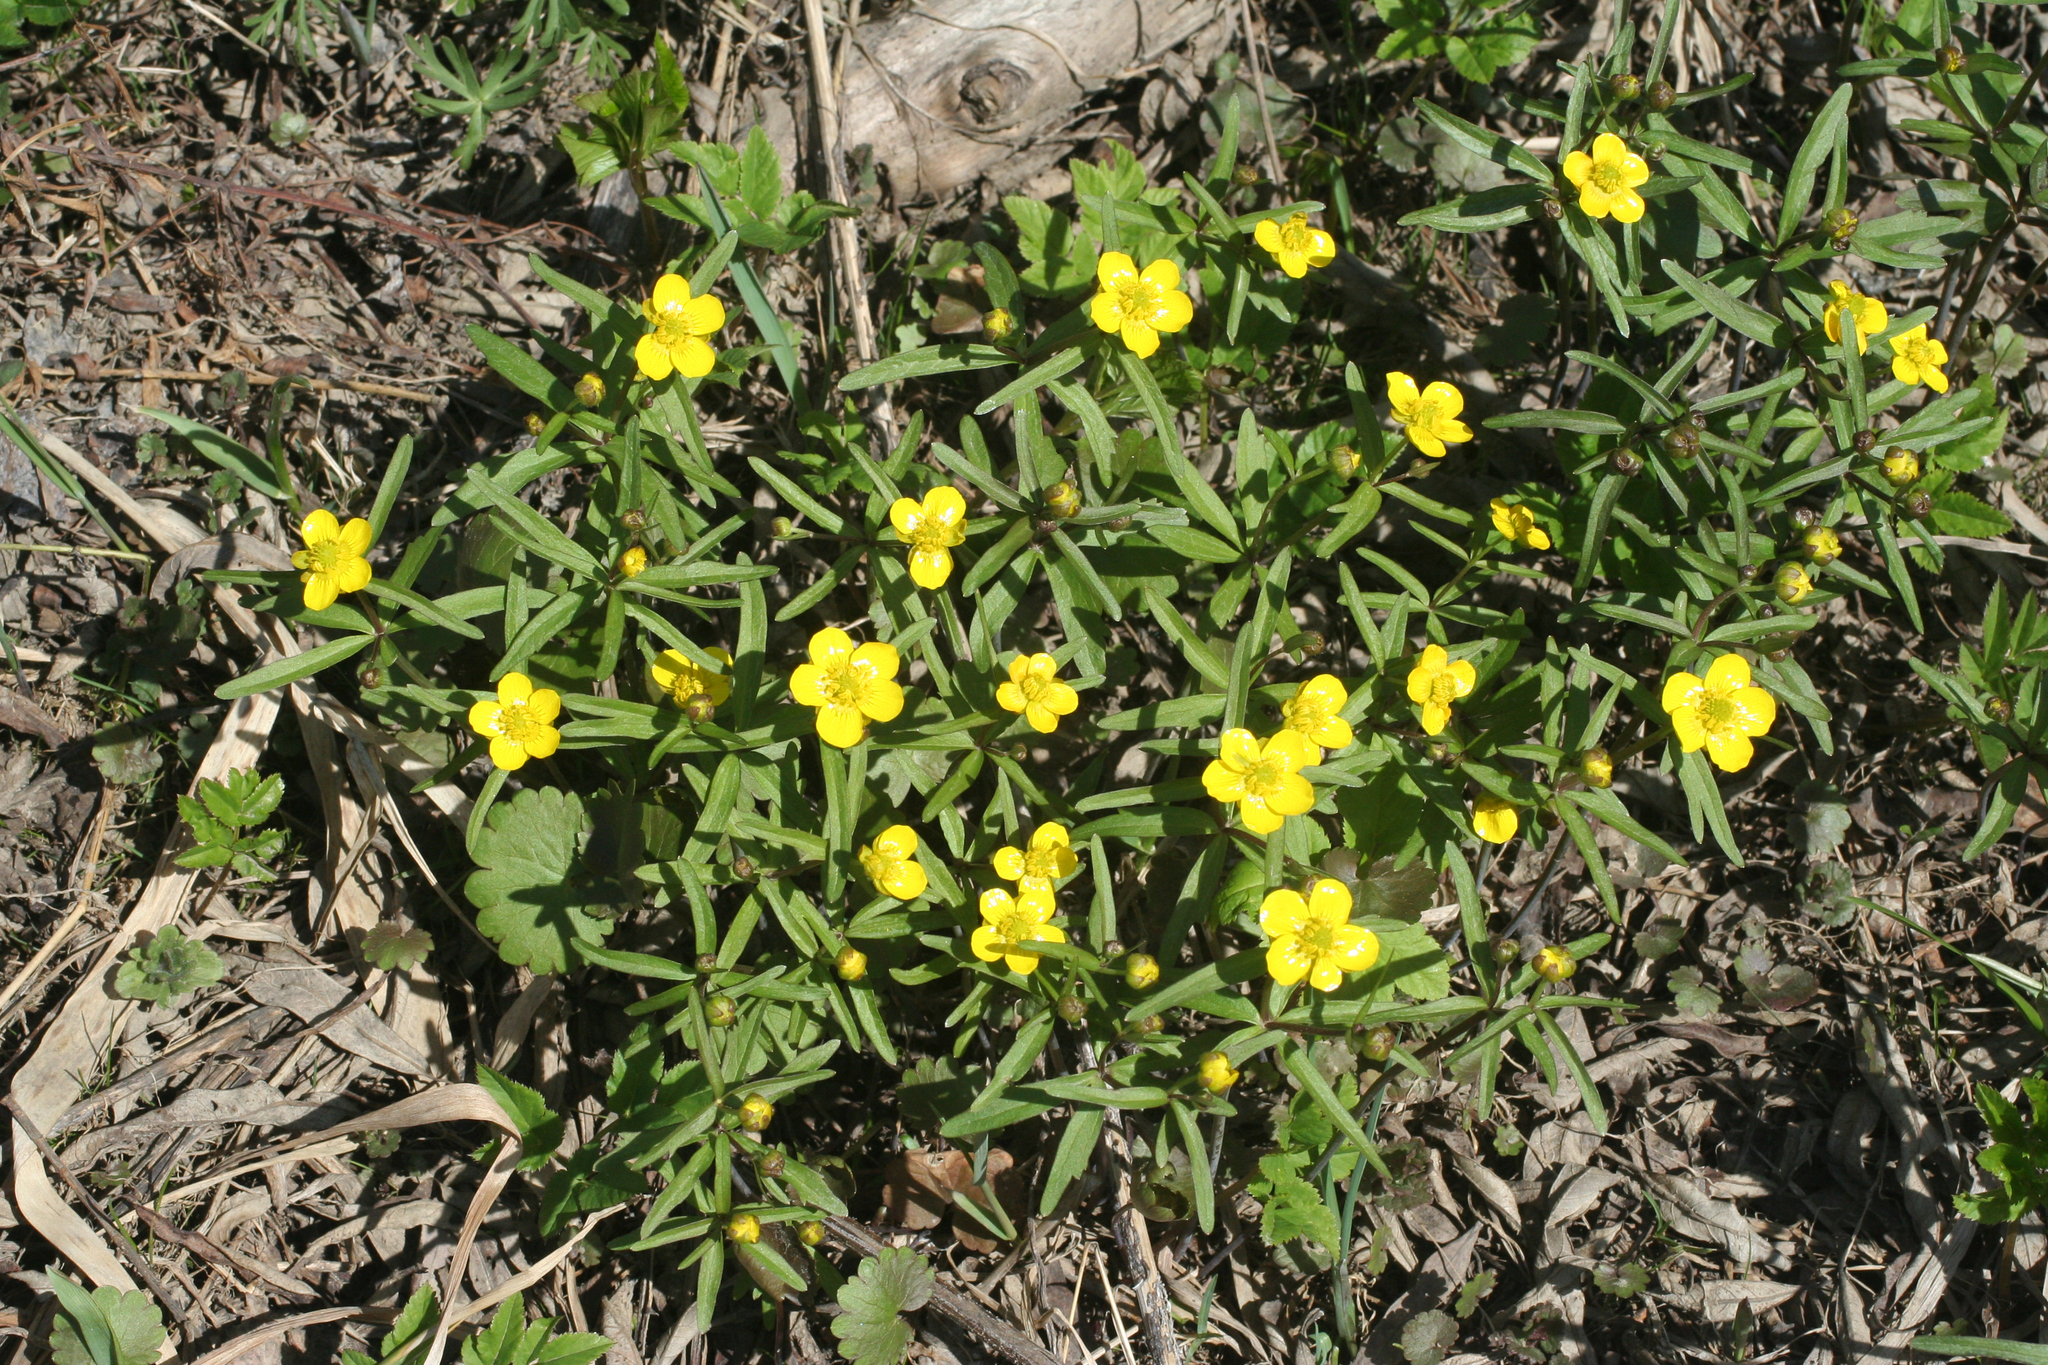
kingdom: Plantae
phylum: Tracheophyta
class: Magnoliopsida
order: Ranunculales
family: Ranunculaceae
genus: Ranunculus
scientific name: Ranunculus monophyllus
